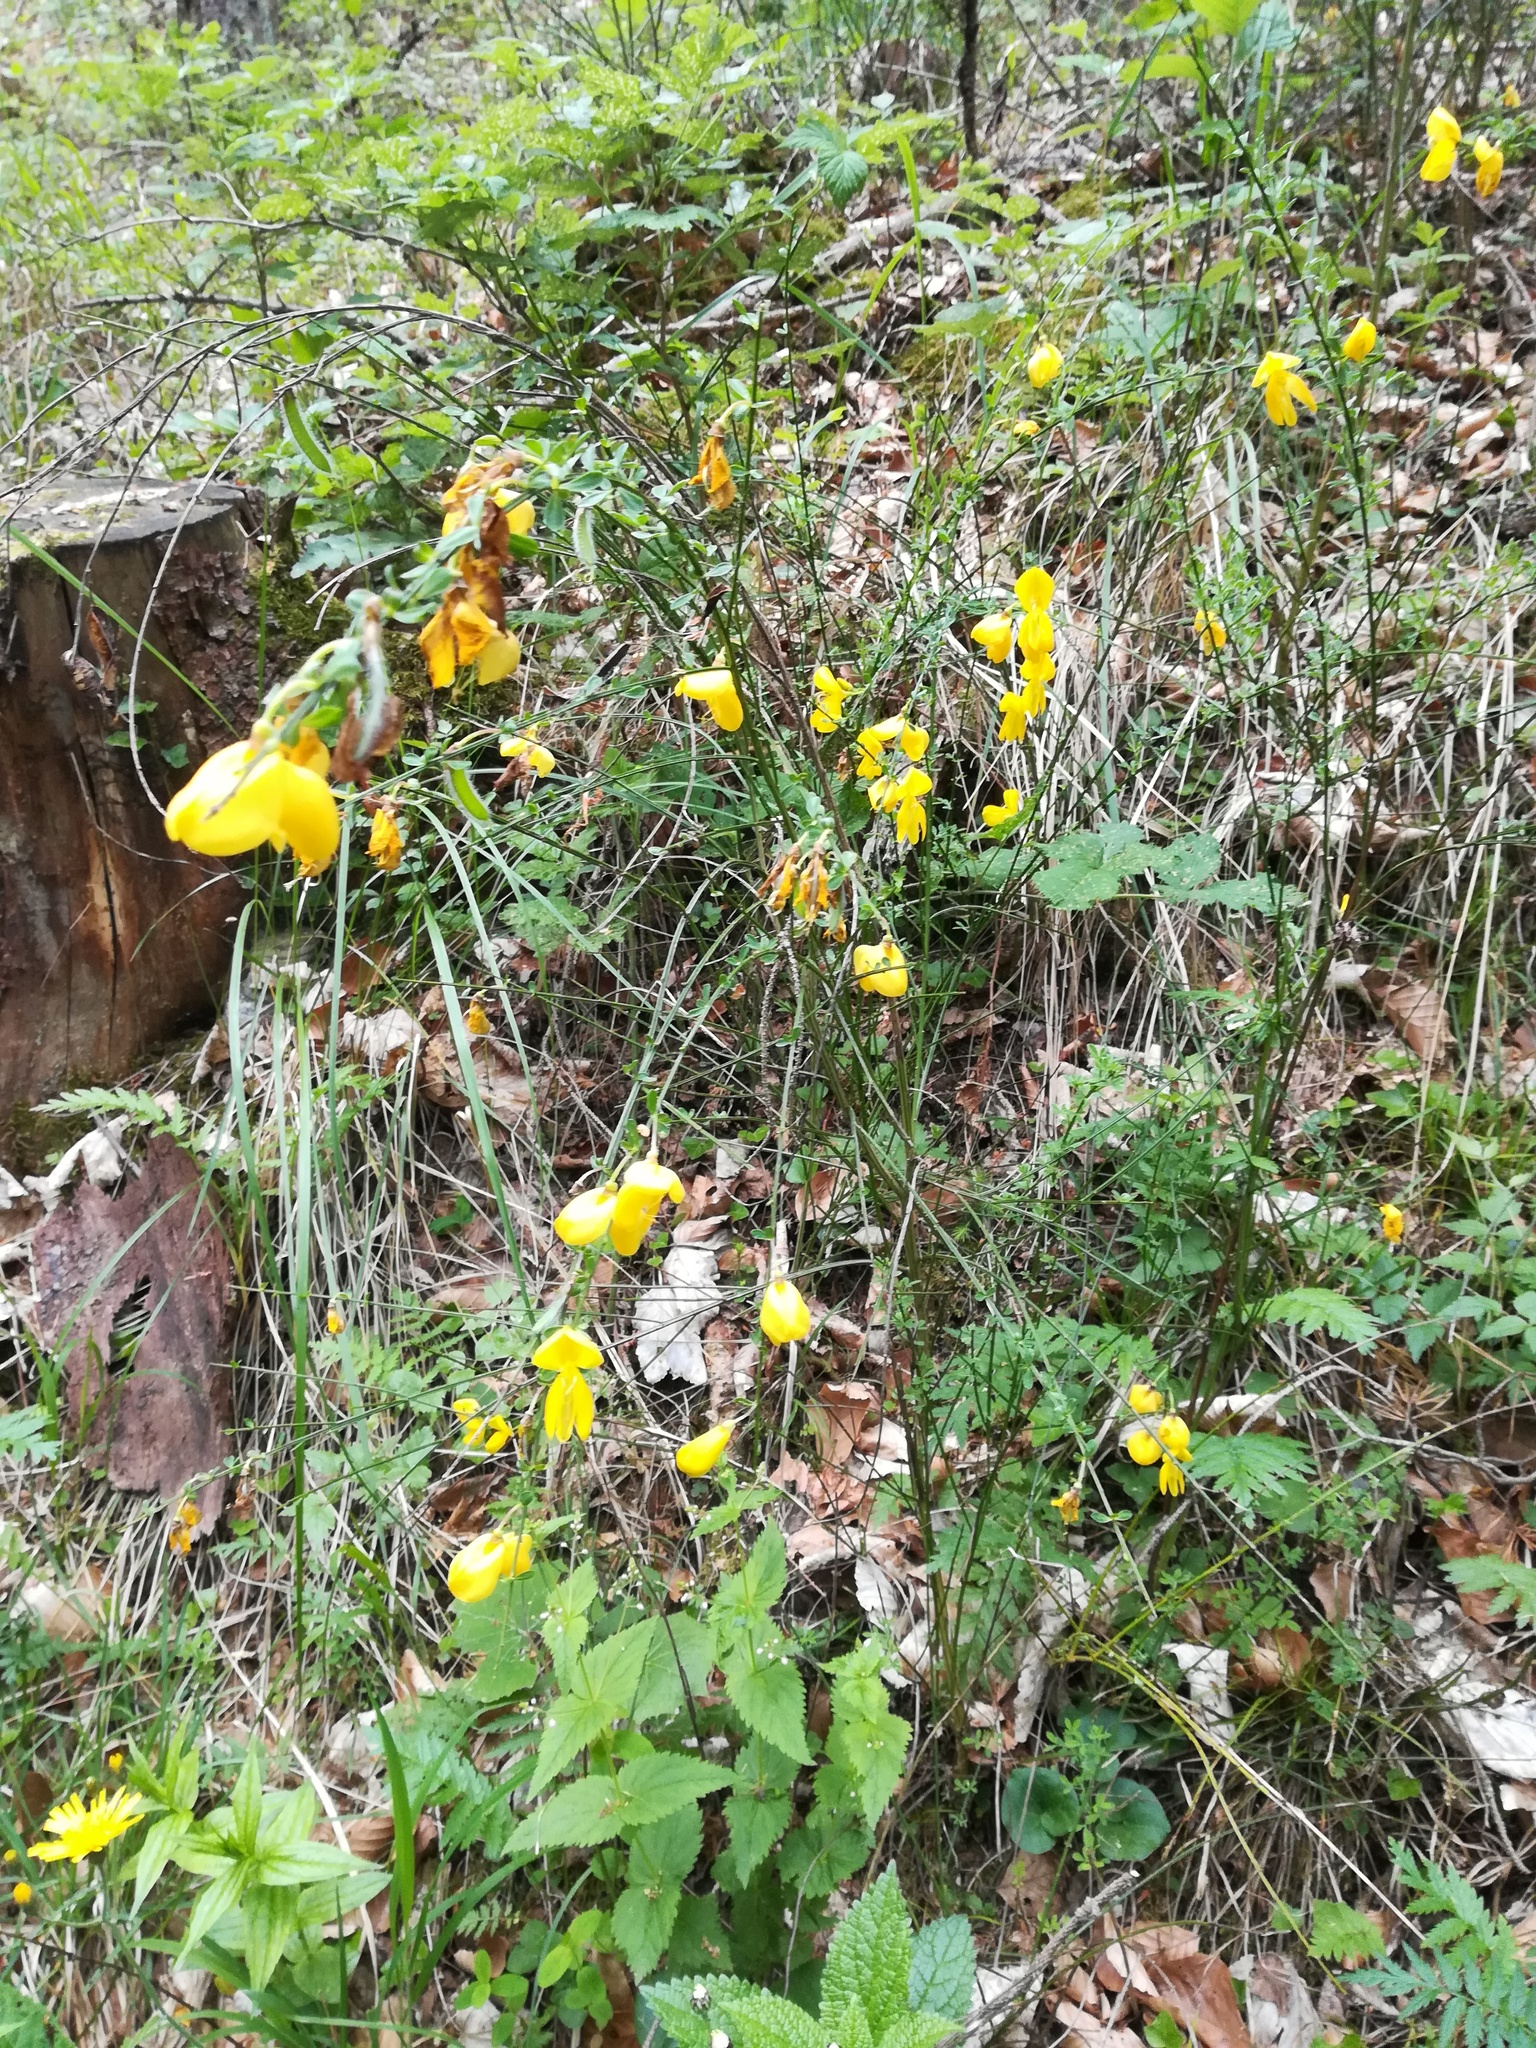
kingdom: Plantae
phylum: Tracheophyta
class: Magnoliopsida
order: Fabales
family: Fabaceae
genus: Cytisus
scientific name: Cytisus scoparius
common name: Scotch broom
